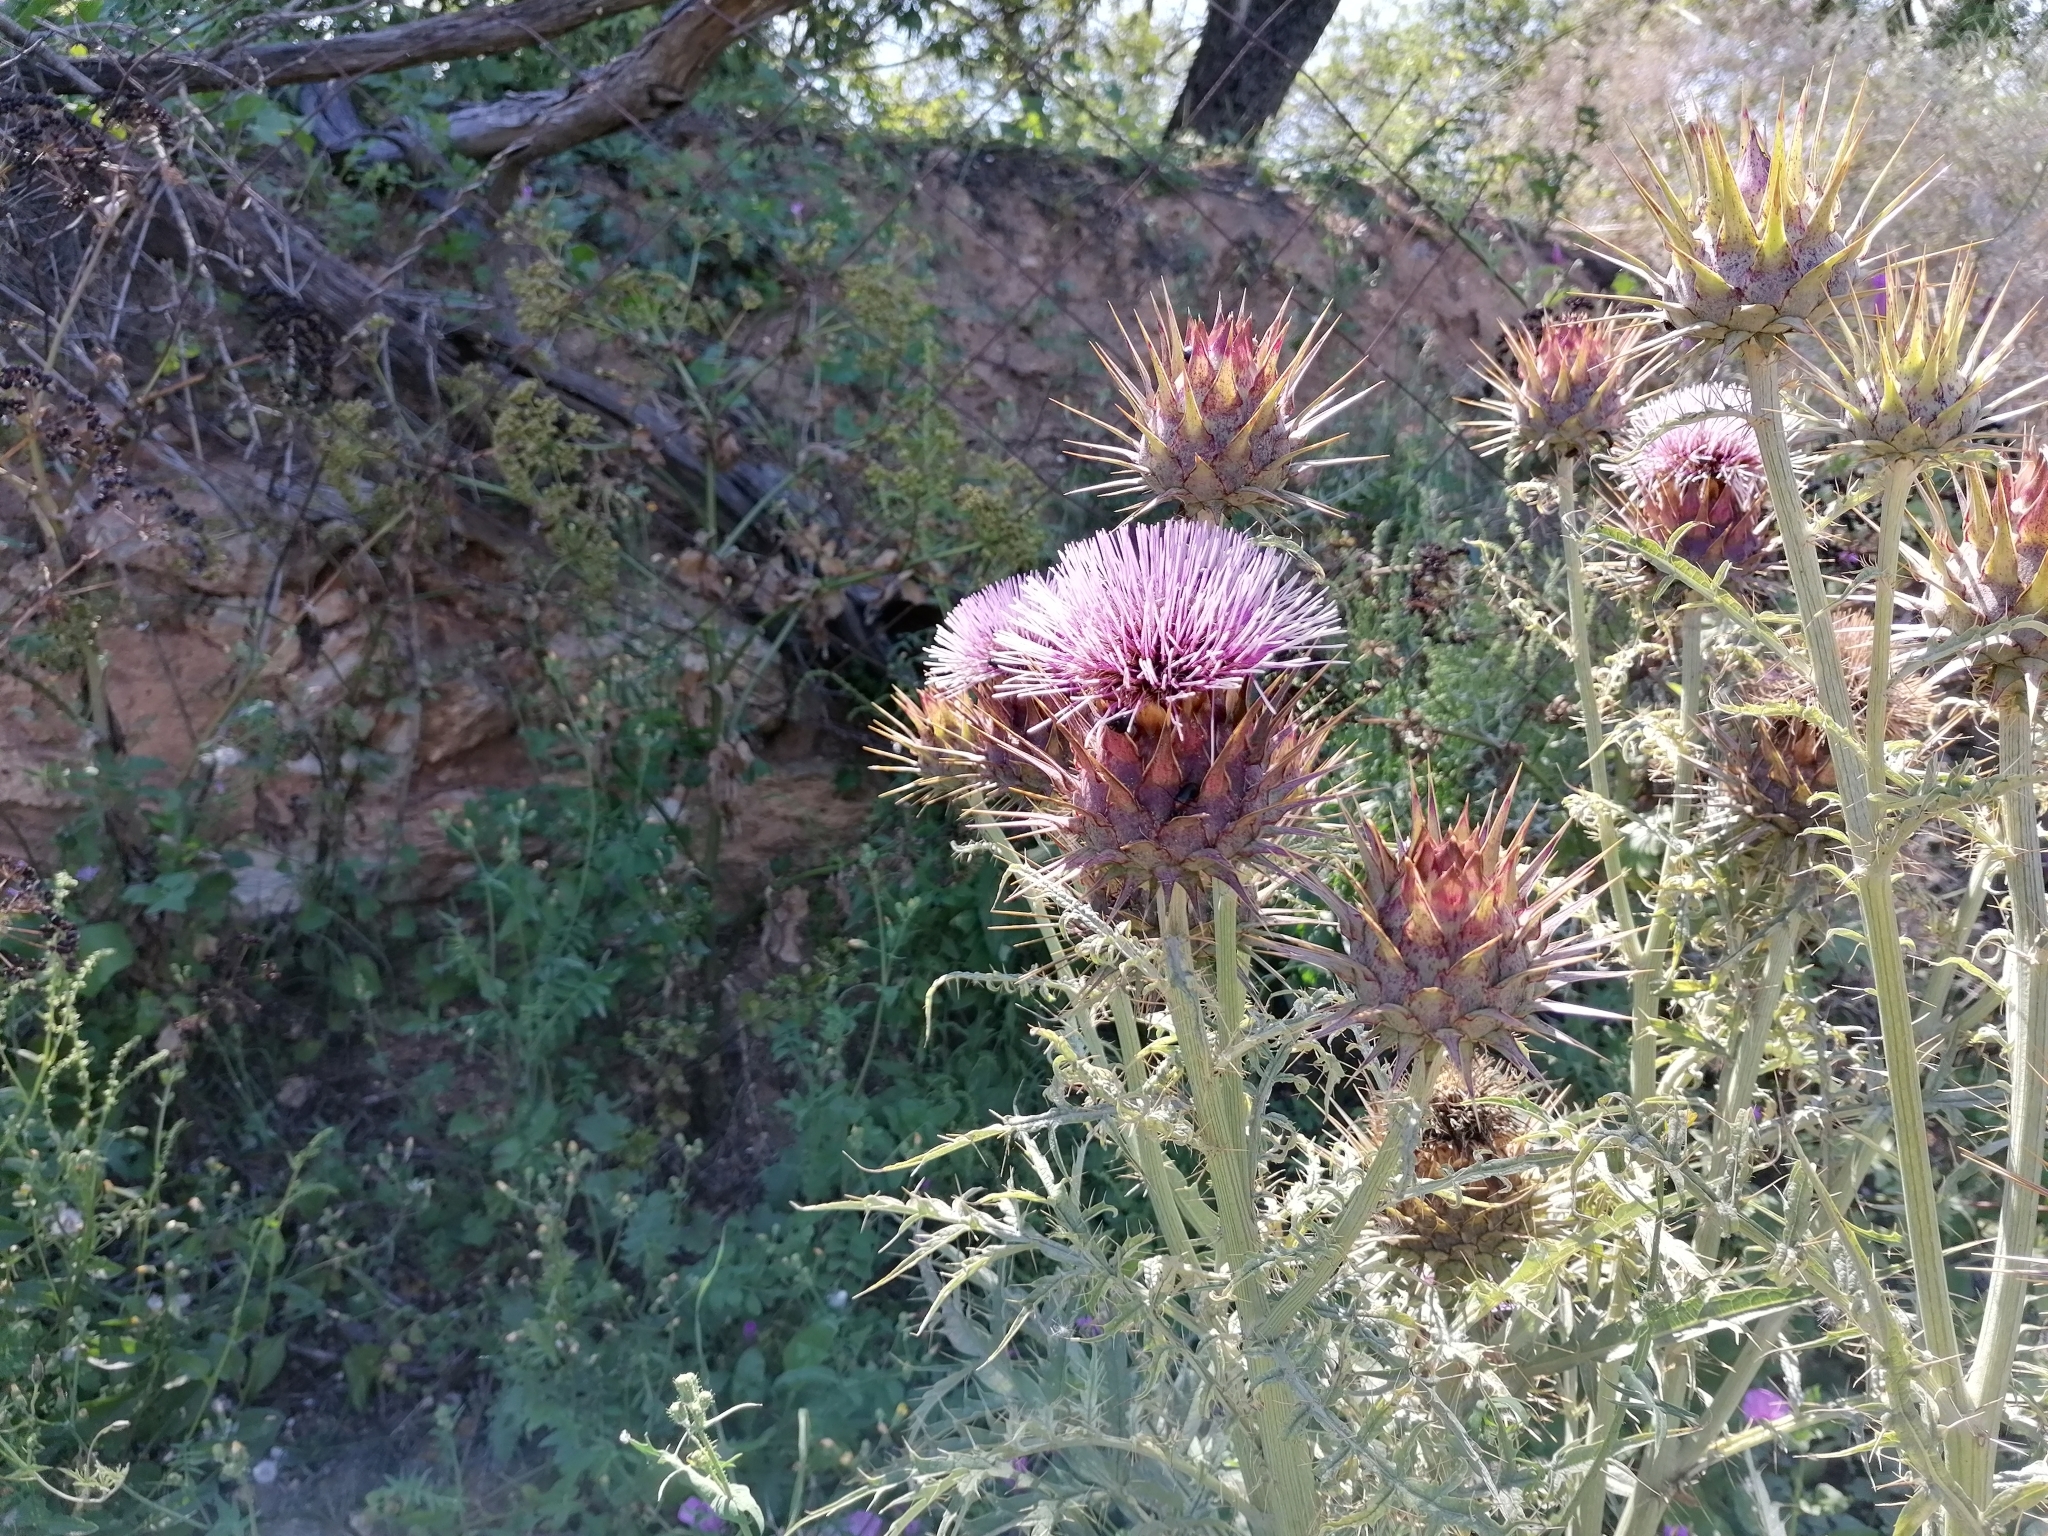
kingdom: Plantae
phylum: Tracheophyta
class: Magnoliopsida
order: Asterales
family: Asteraceae
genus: Cynara
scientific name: Cynara cardunculus
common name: Globe artichoke
